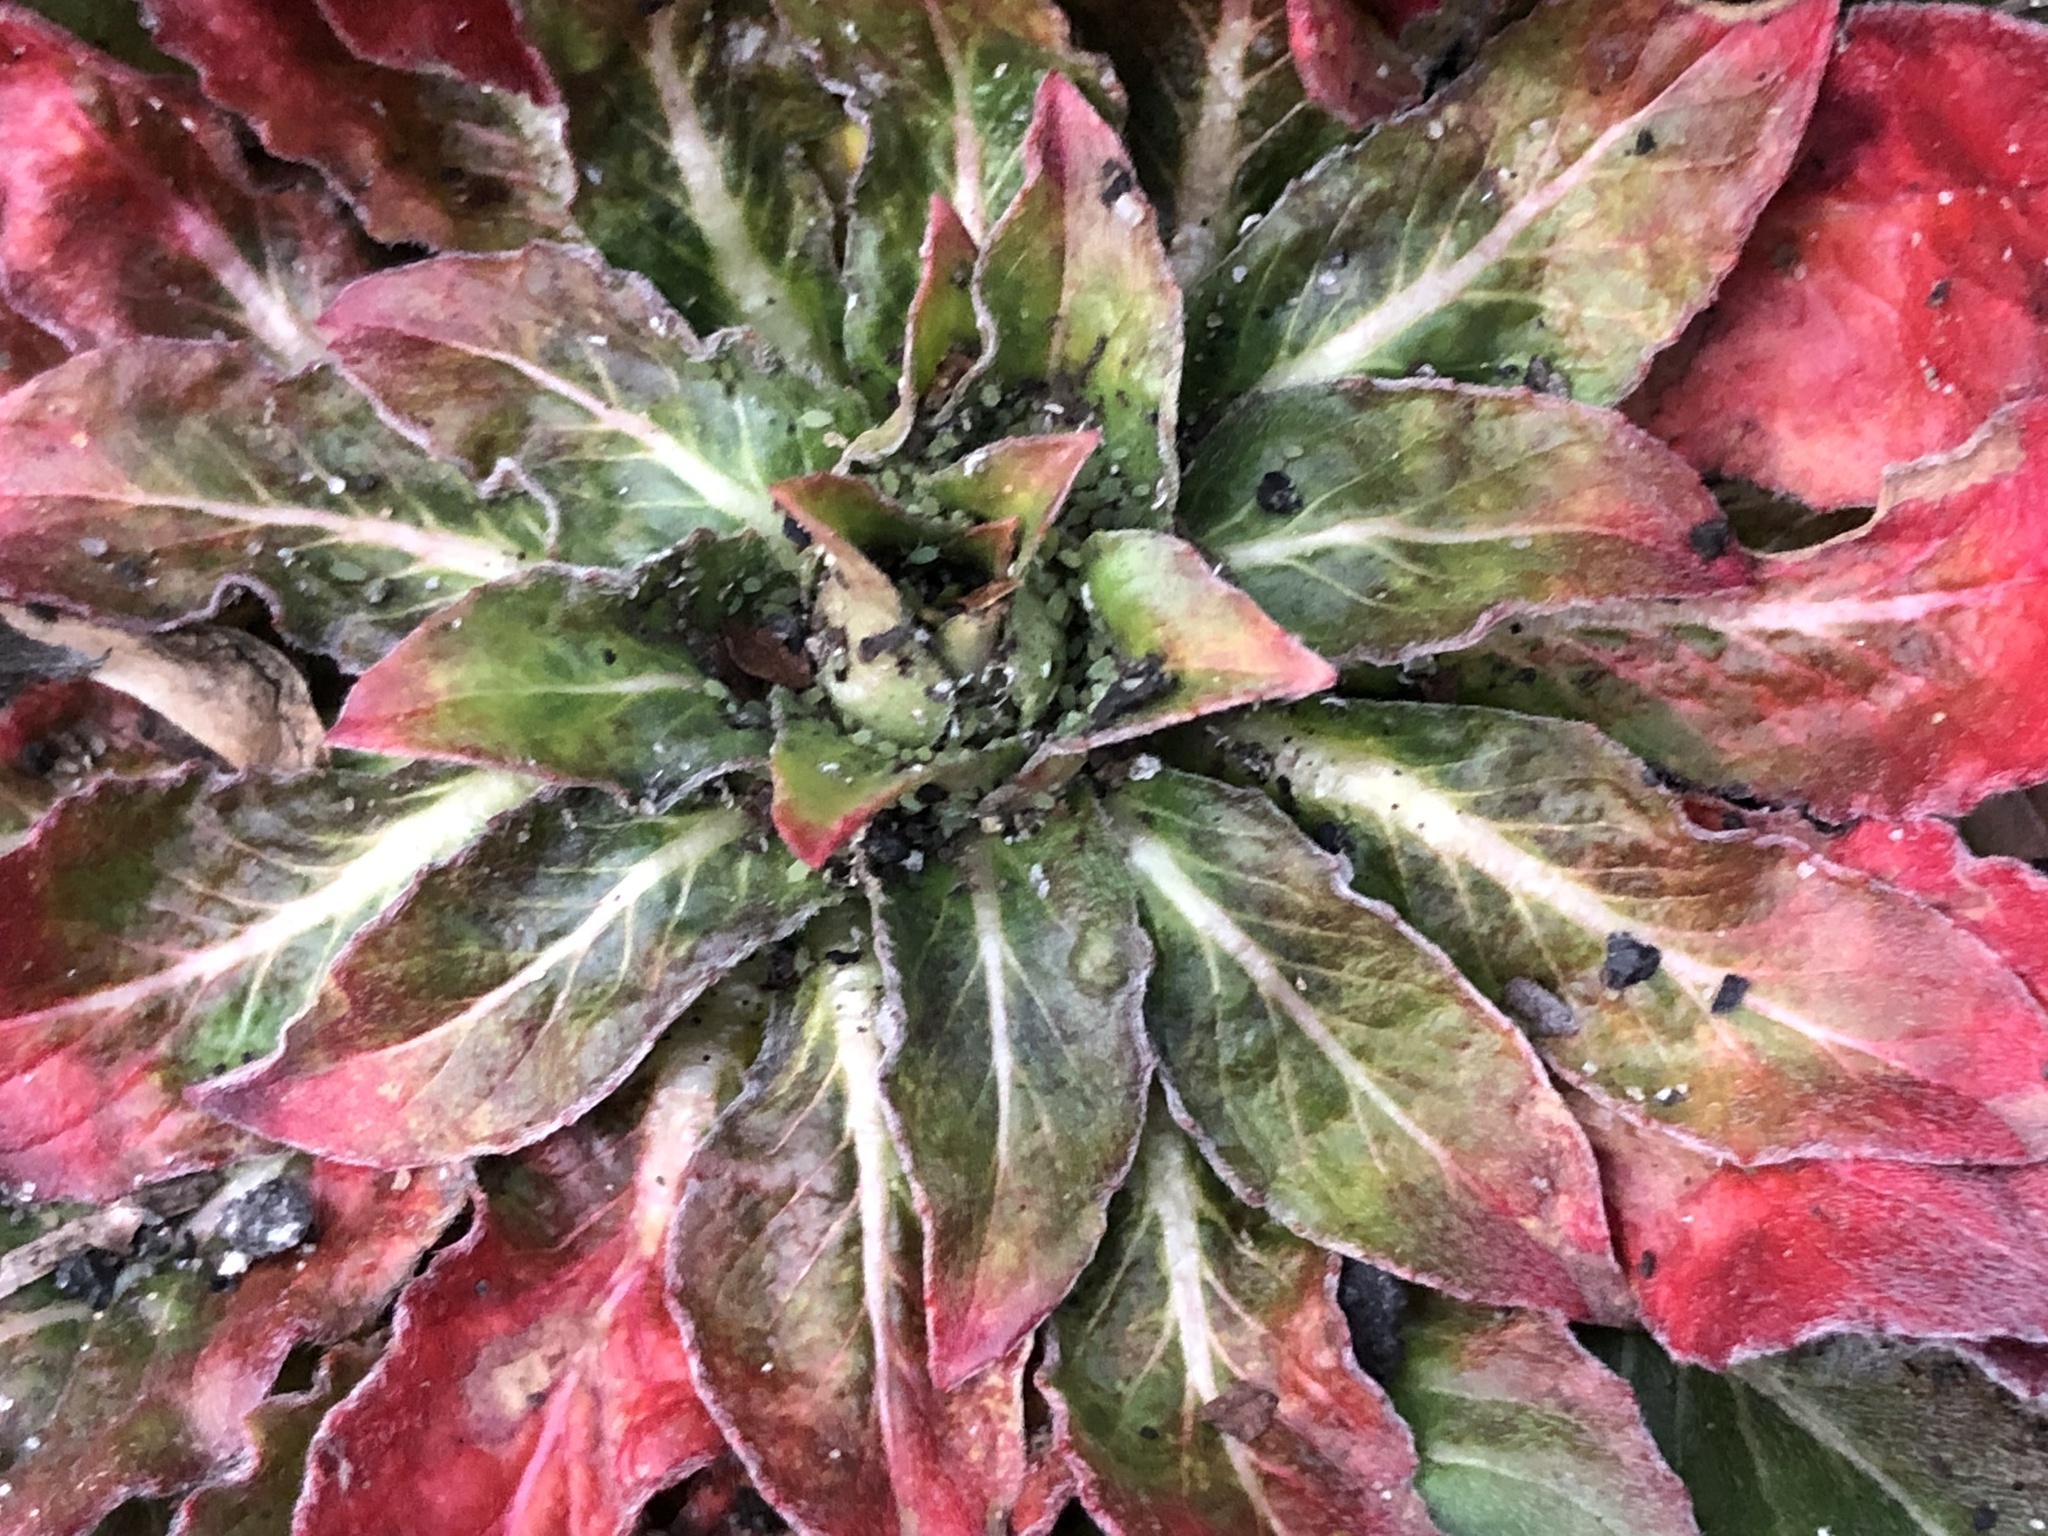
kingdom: Plantae
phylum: Tracheophyta
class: Magnoliopsida
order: Myrtales
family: Onagraceae
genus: Oenothera
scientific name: Oenothera biennis
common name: Common evening-primrose
